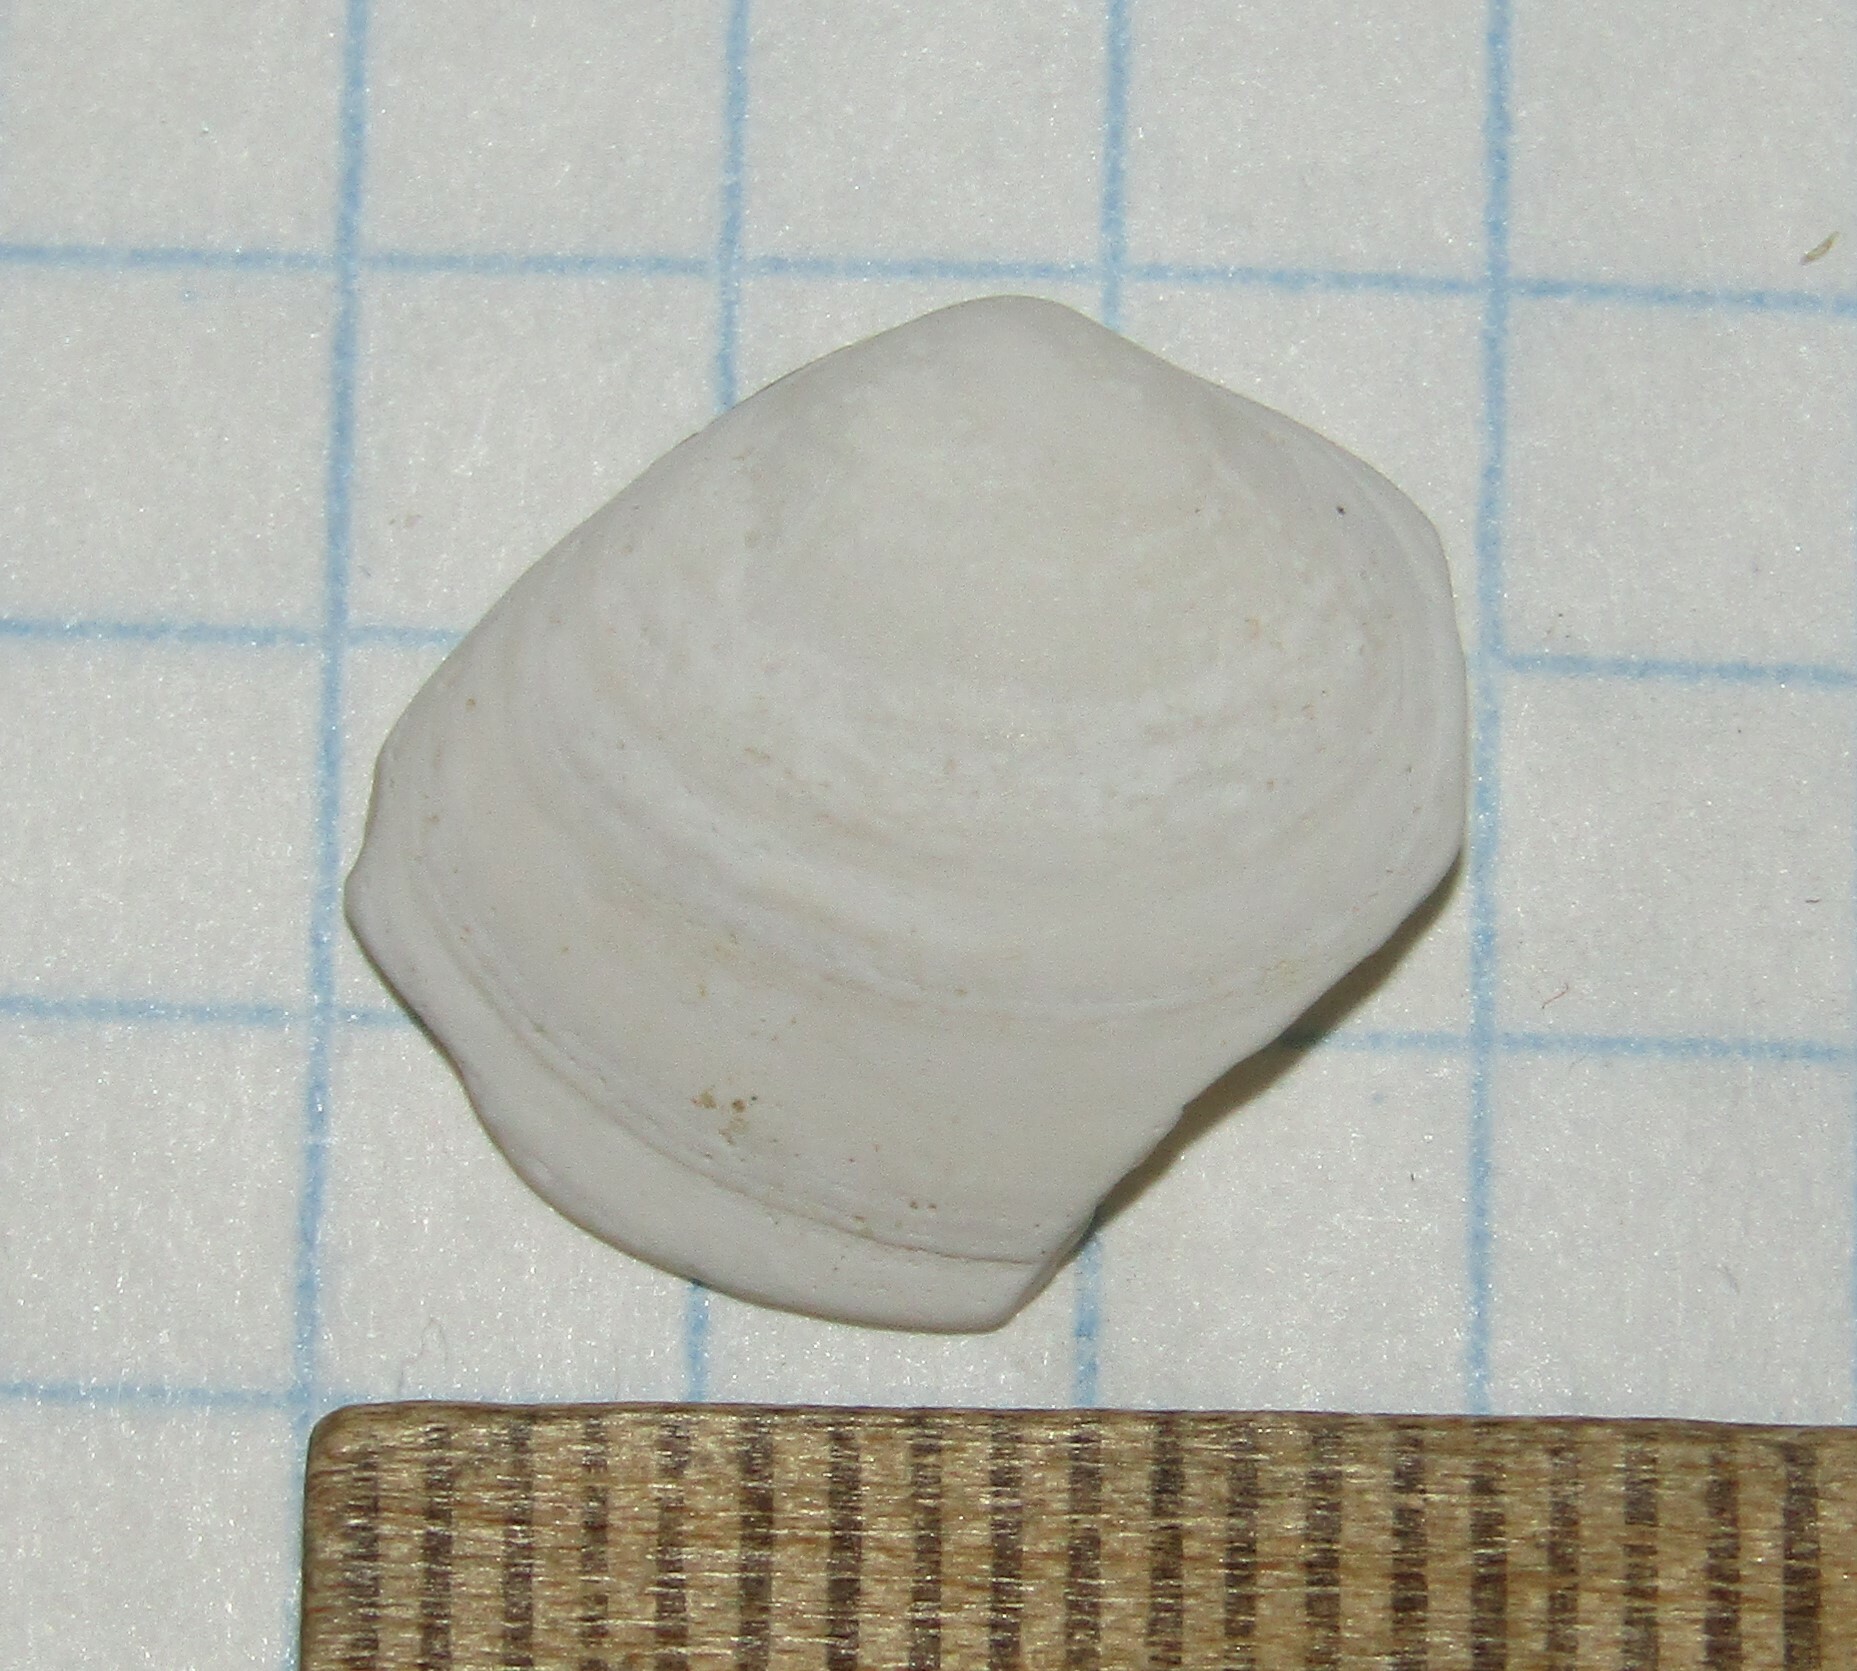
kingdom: Animalia
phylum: Mollusca
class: Bivalvia
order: Cardiida
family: Tellinidae
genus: Macoma
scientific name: Macoma balthica
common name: Baltic tellin
